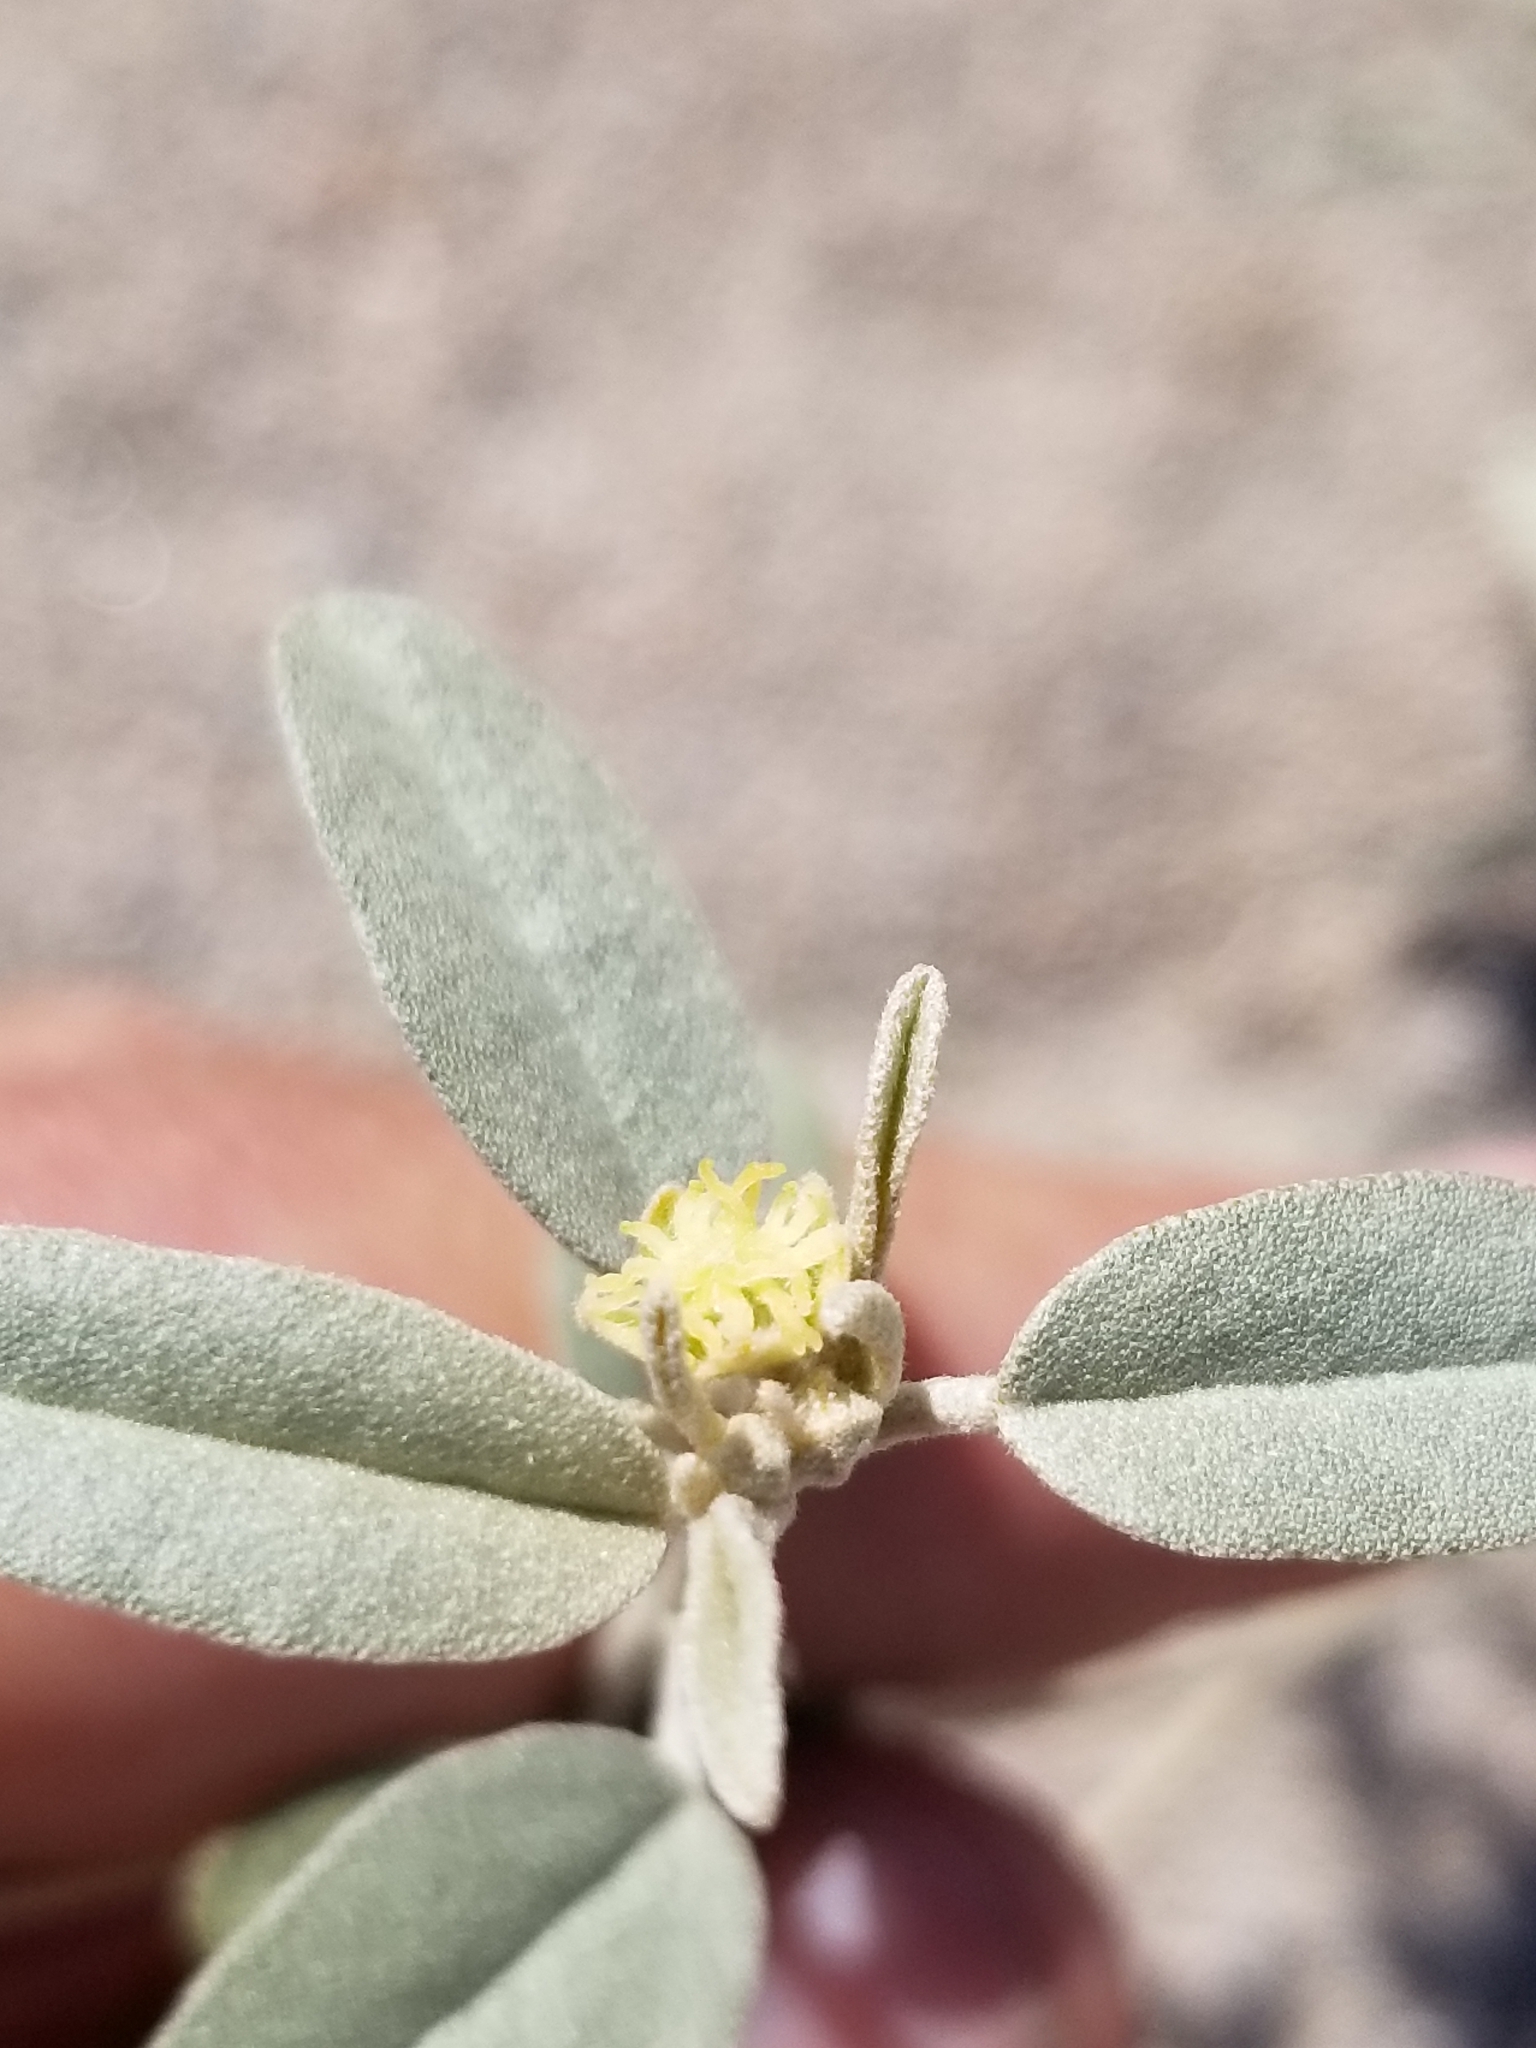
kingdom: Plantae
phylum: Tracheophyta
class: Magnoliopsida
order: Malpighiales
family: Euphorbiaceae
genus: Croton
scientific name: Croton californicus
